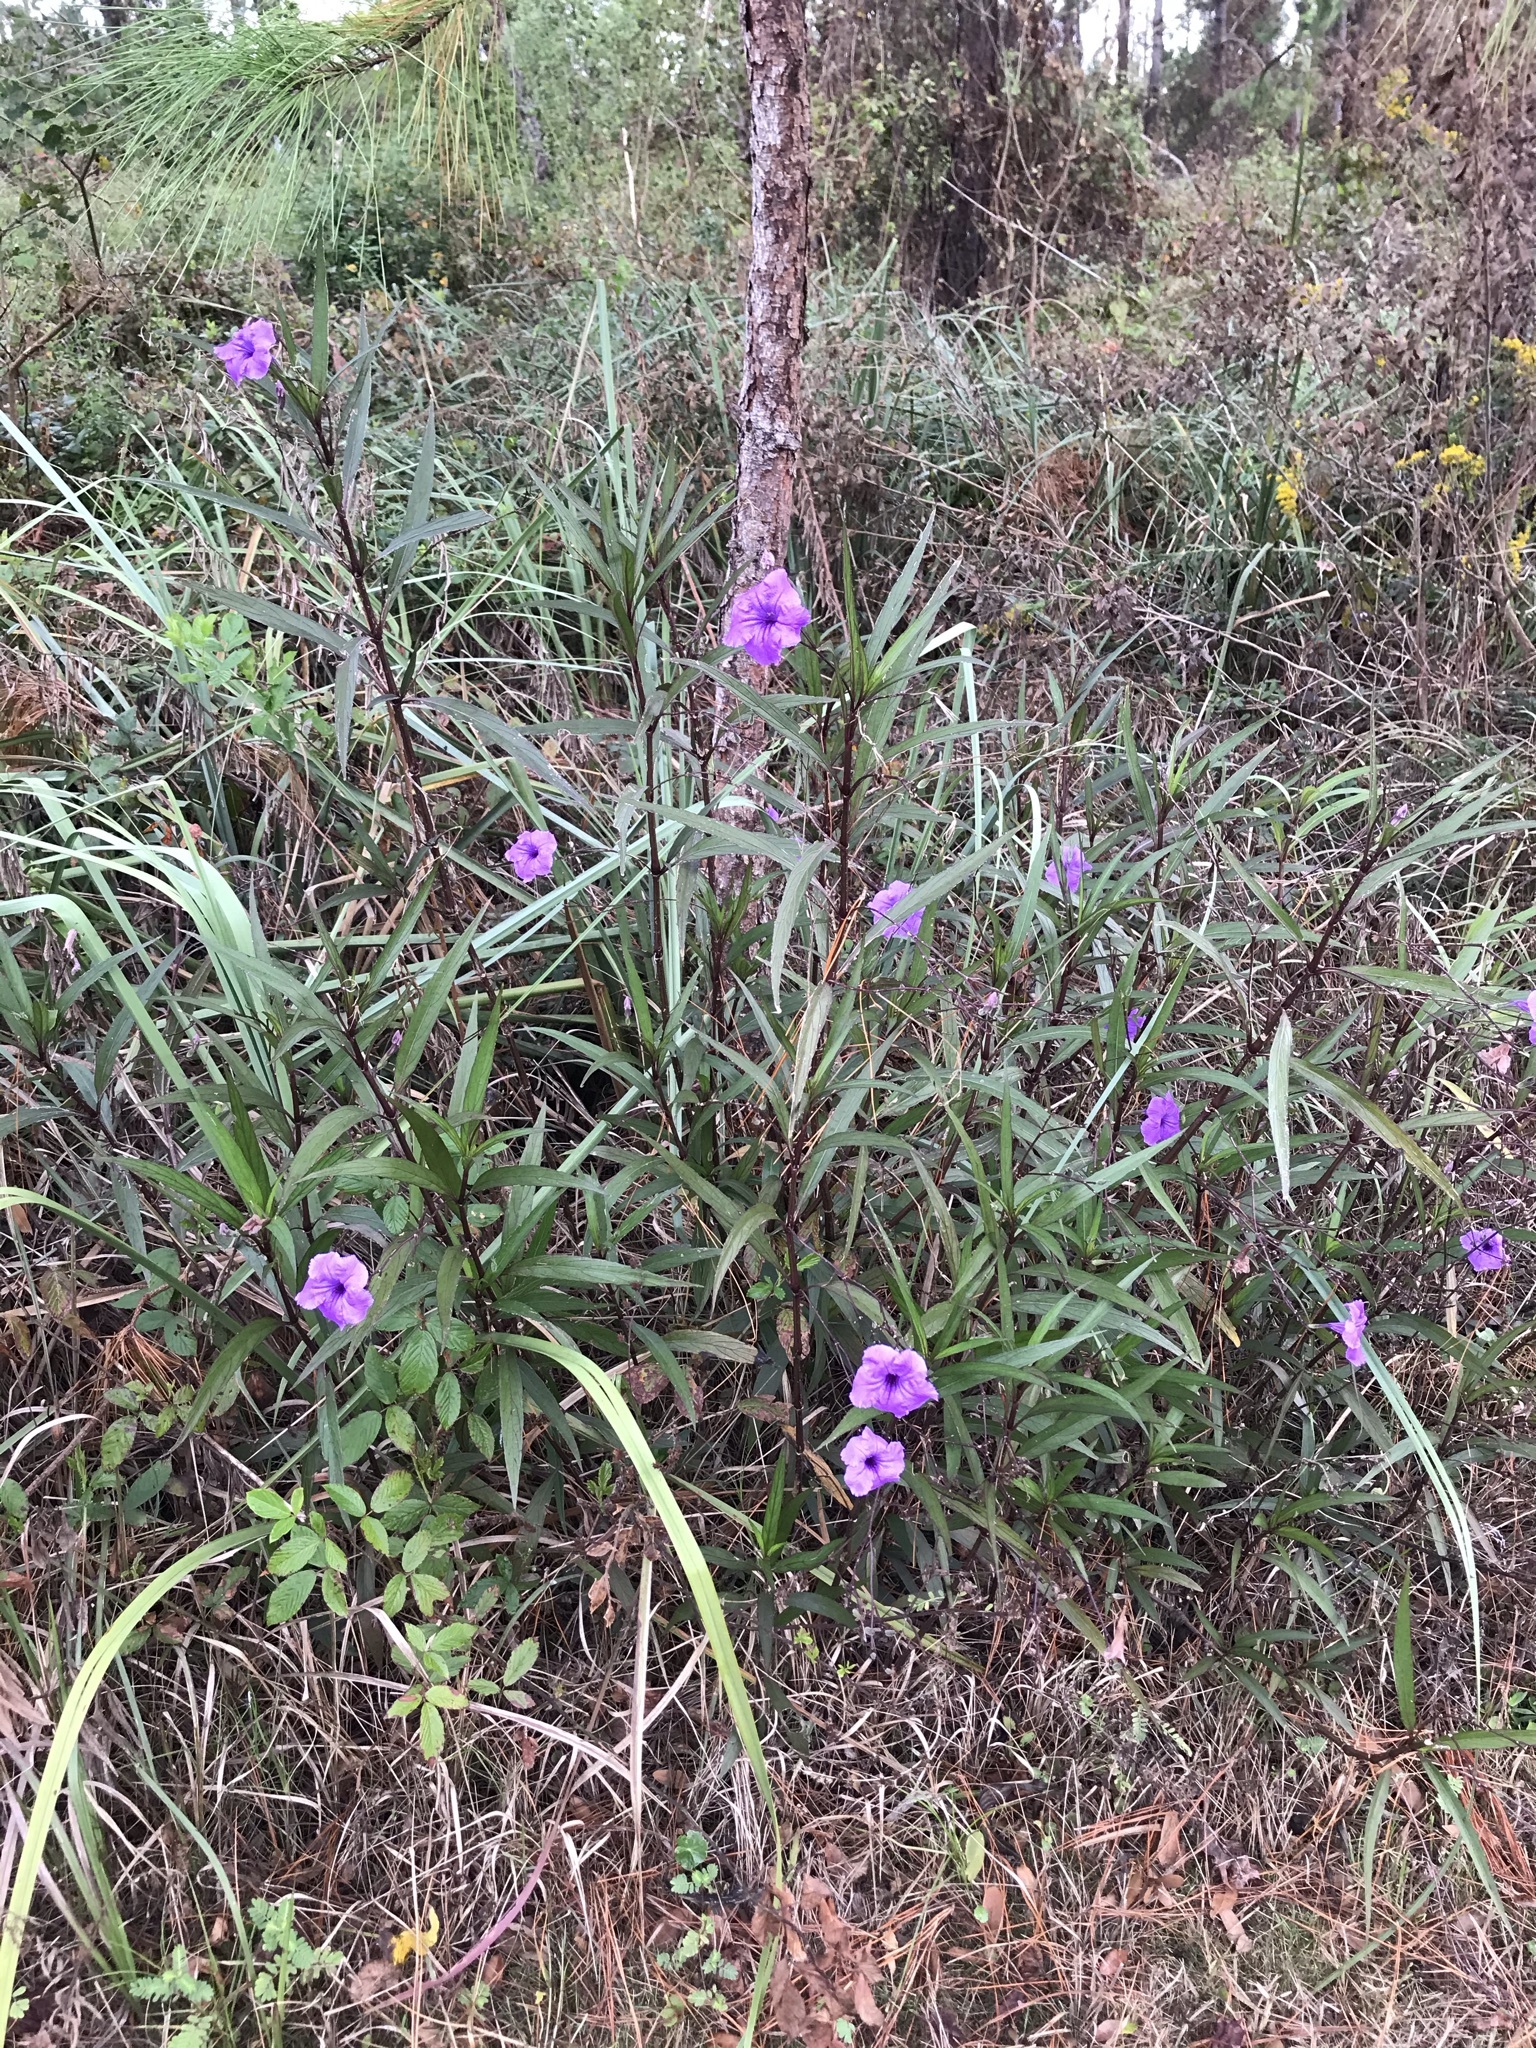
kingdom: Plantae
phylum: Tracheophyta
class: Magnoliopsida
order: Lamiales
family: Acanthaceae
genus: Ruellia
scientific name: Ruellia simplex
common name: Softseed wild petunia
